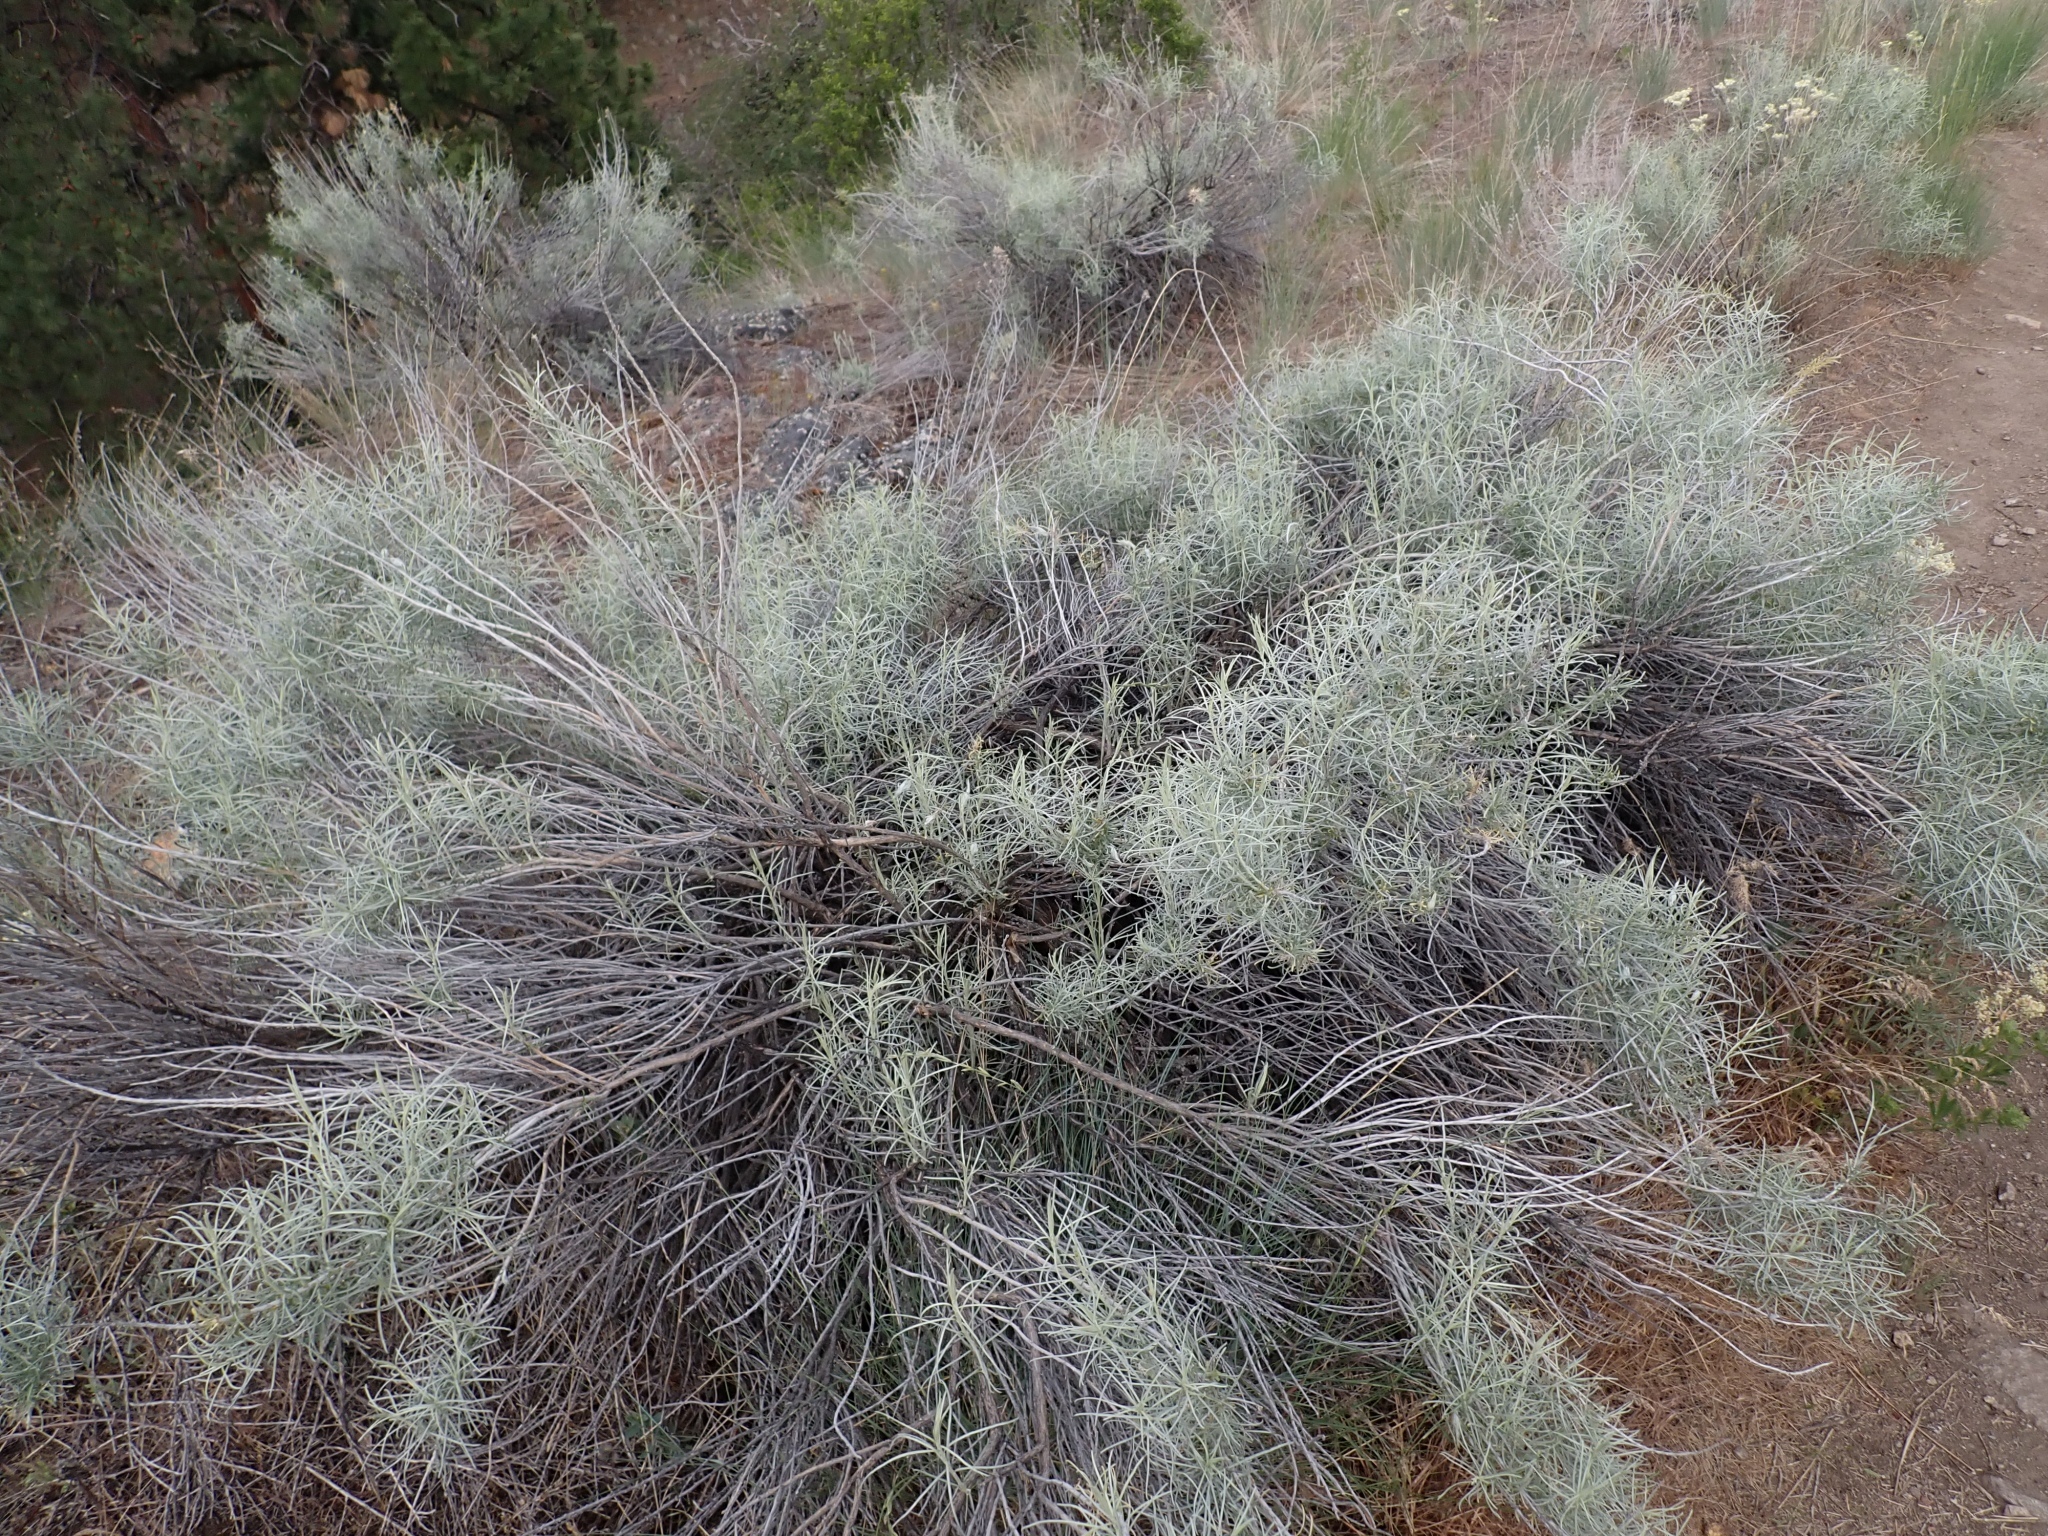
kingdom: Plantae
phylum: Tracheophyta
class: Magnoliopsida
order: Asterales
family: Asteraceae
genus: Ericameria
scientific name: Ericameria nauseosa
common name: Rubber rabbitbrush
